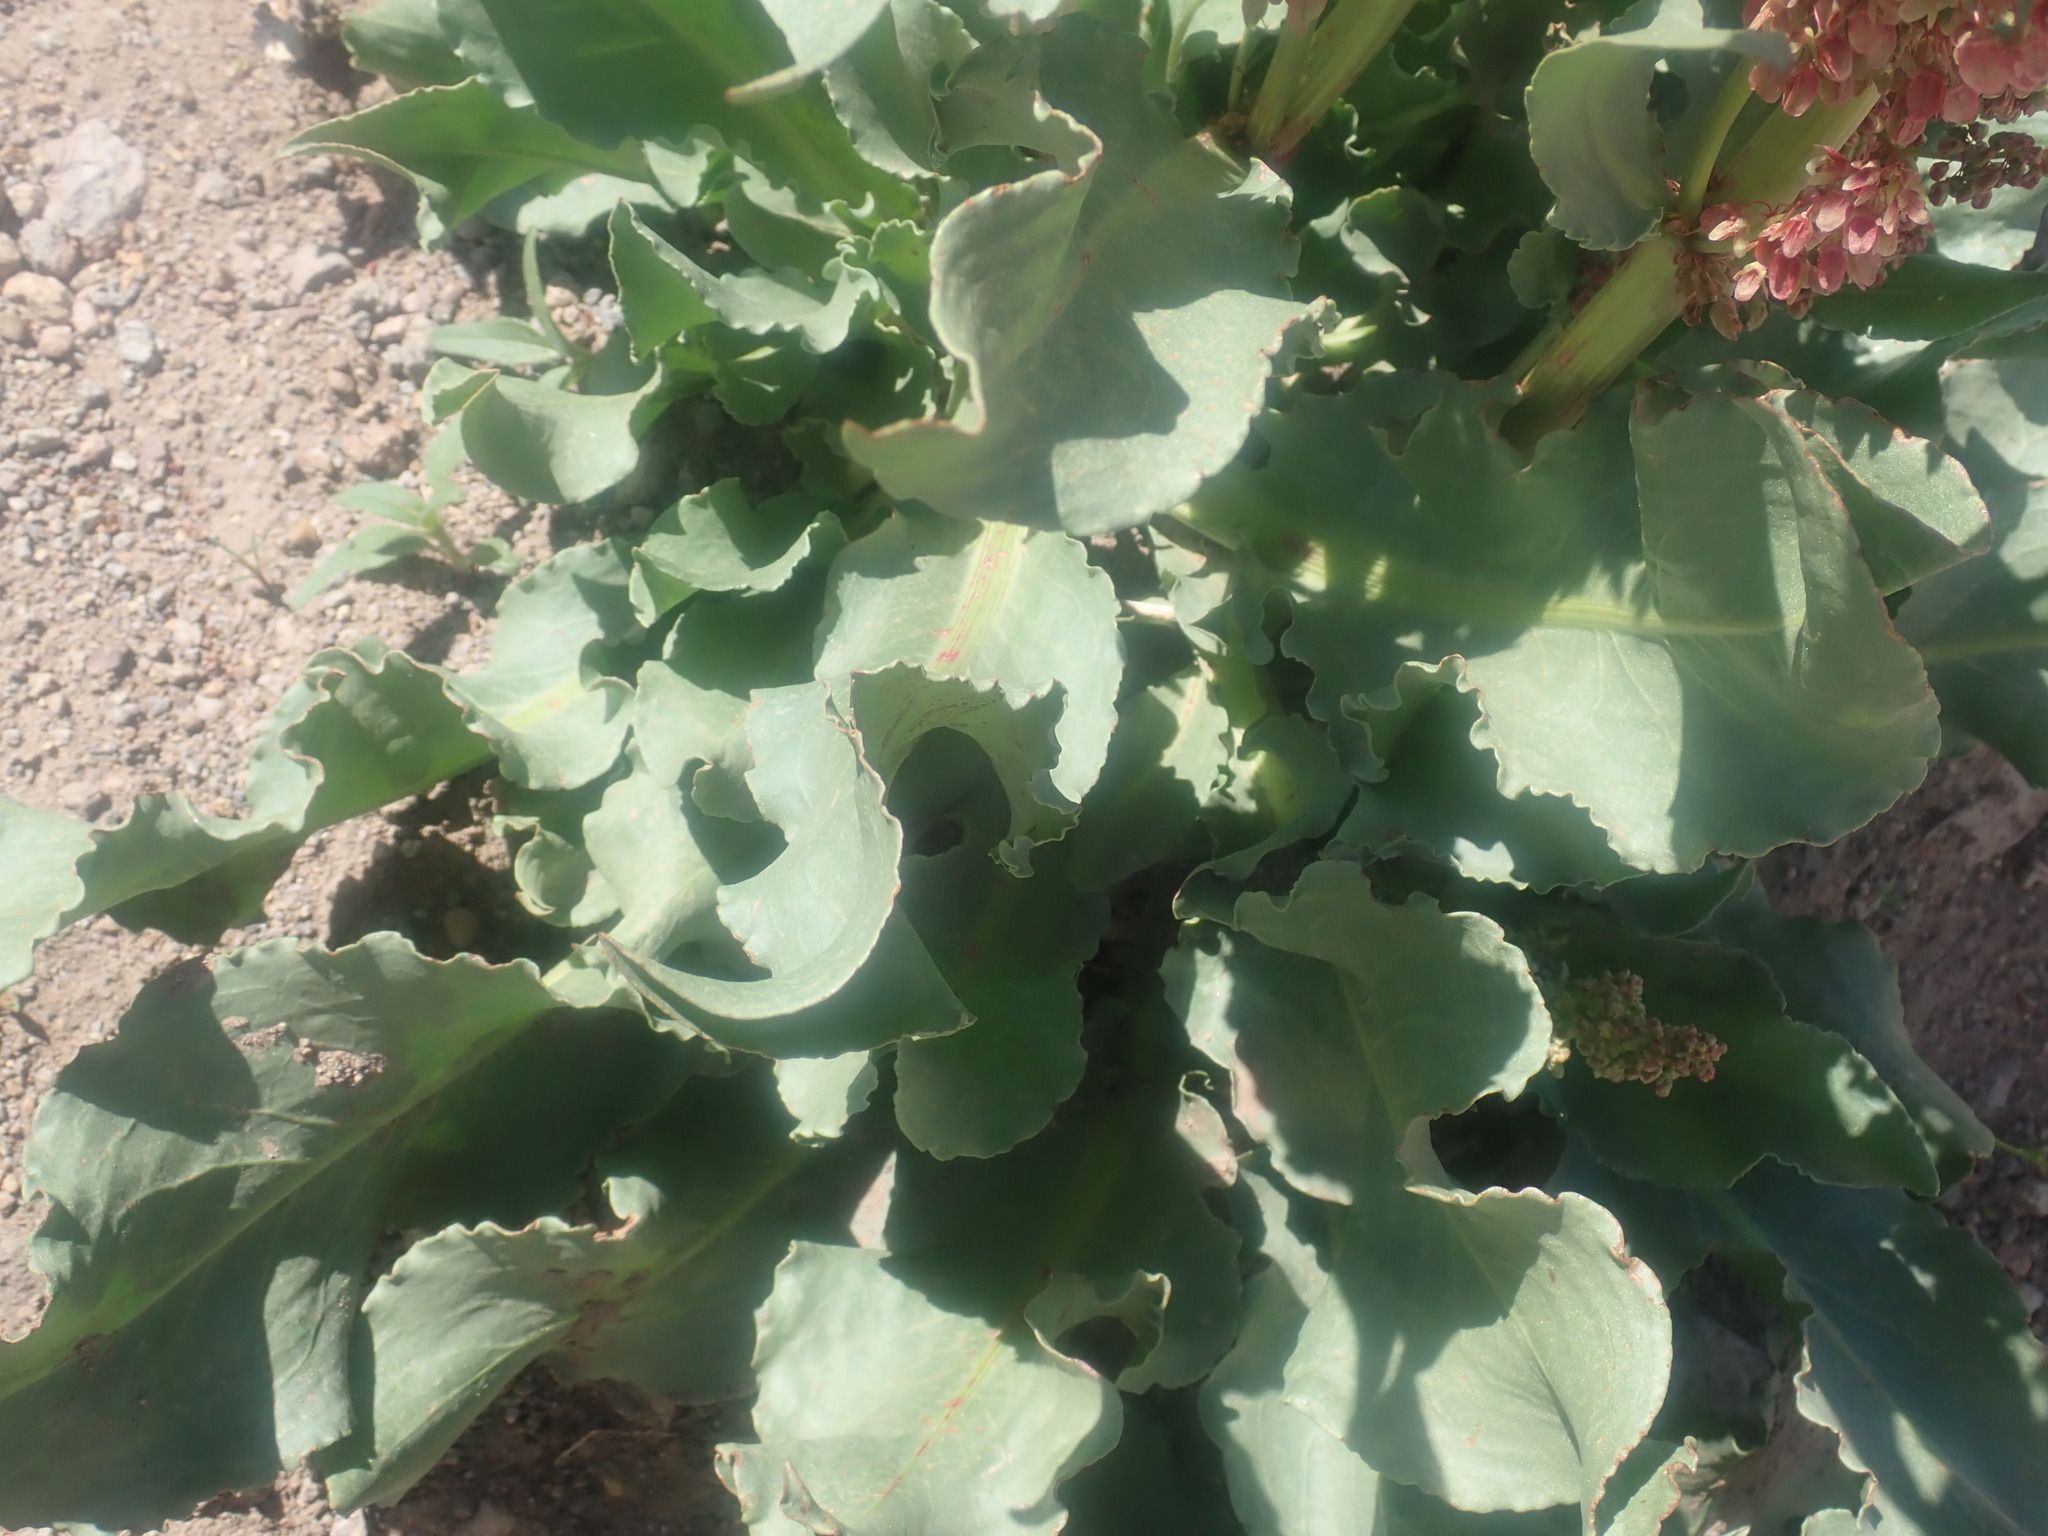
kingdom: Plantae
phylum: Tracheophyta
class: Magnoliopsida
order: Caryophyllales
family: Polygonaceae
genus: Rumex
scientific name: Rumex hymenosepalus
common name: Ganagra
